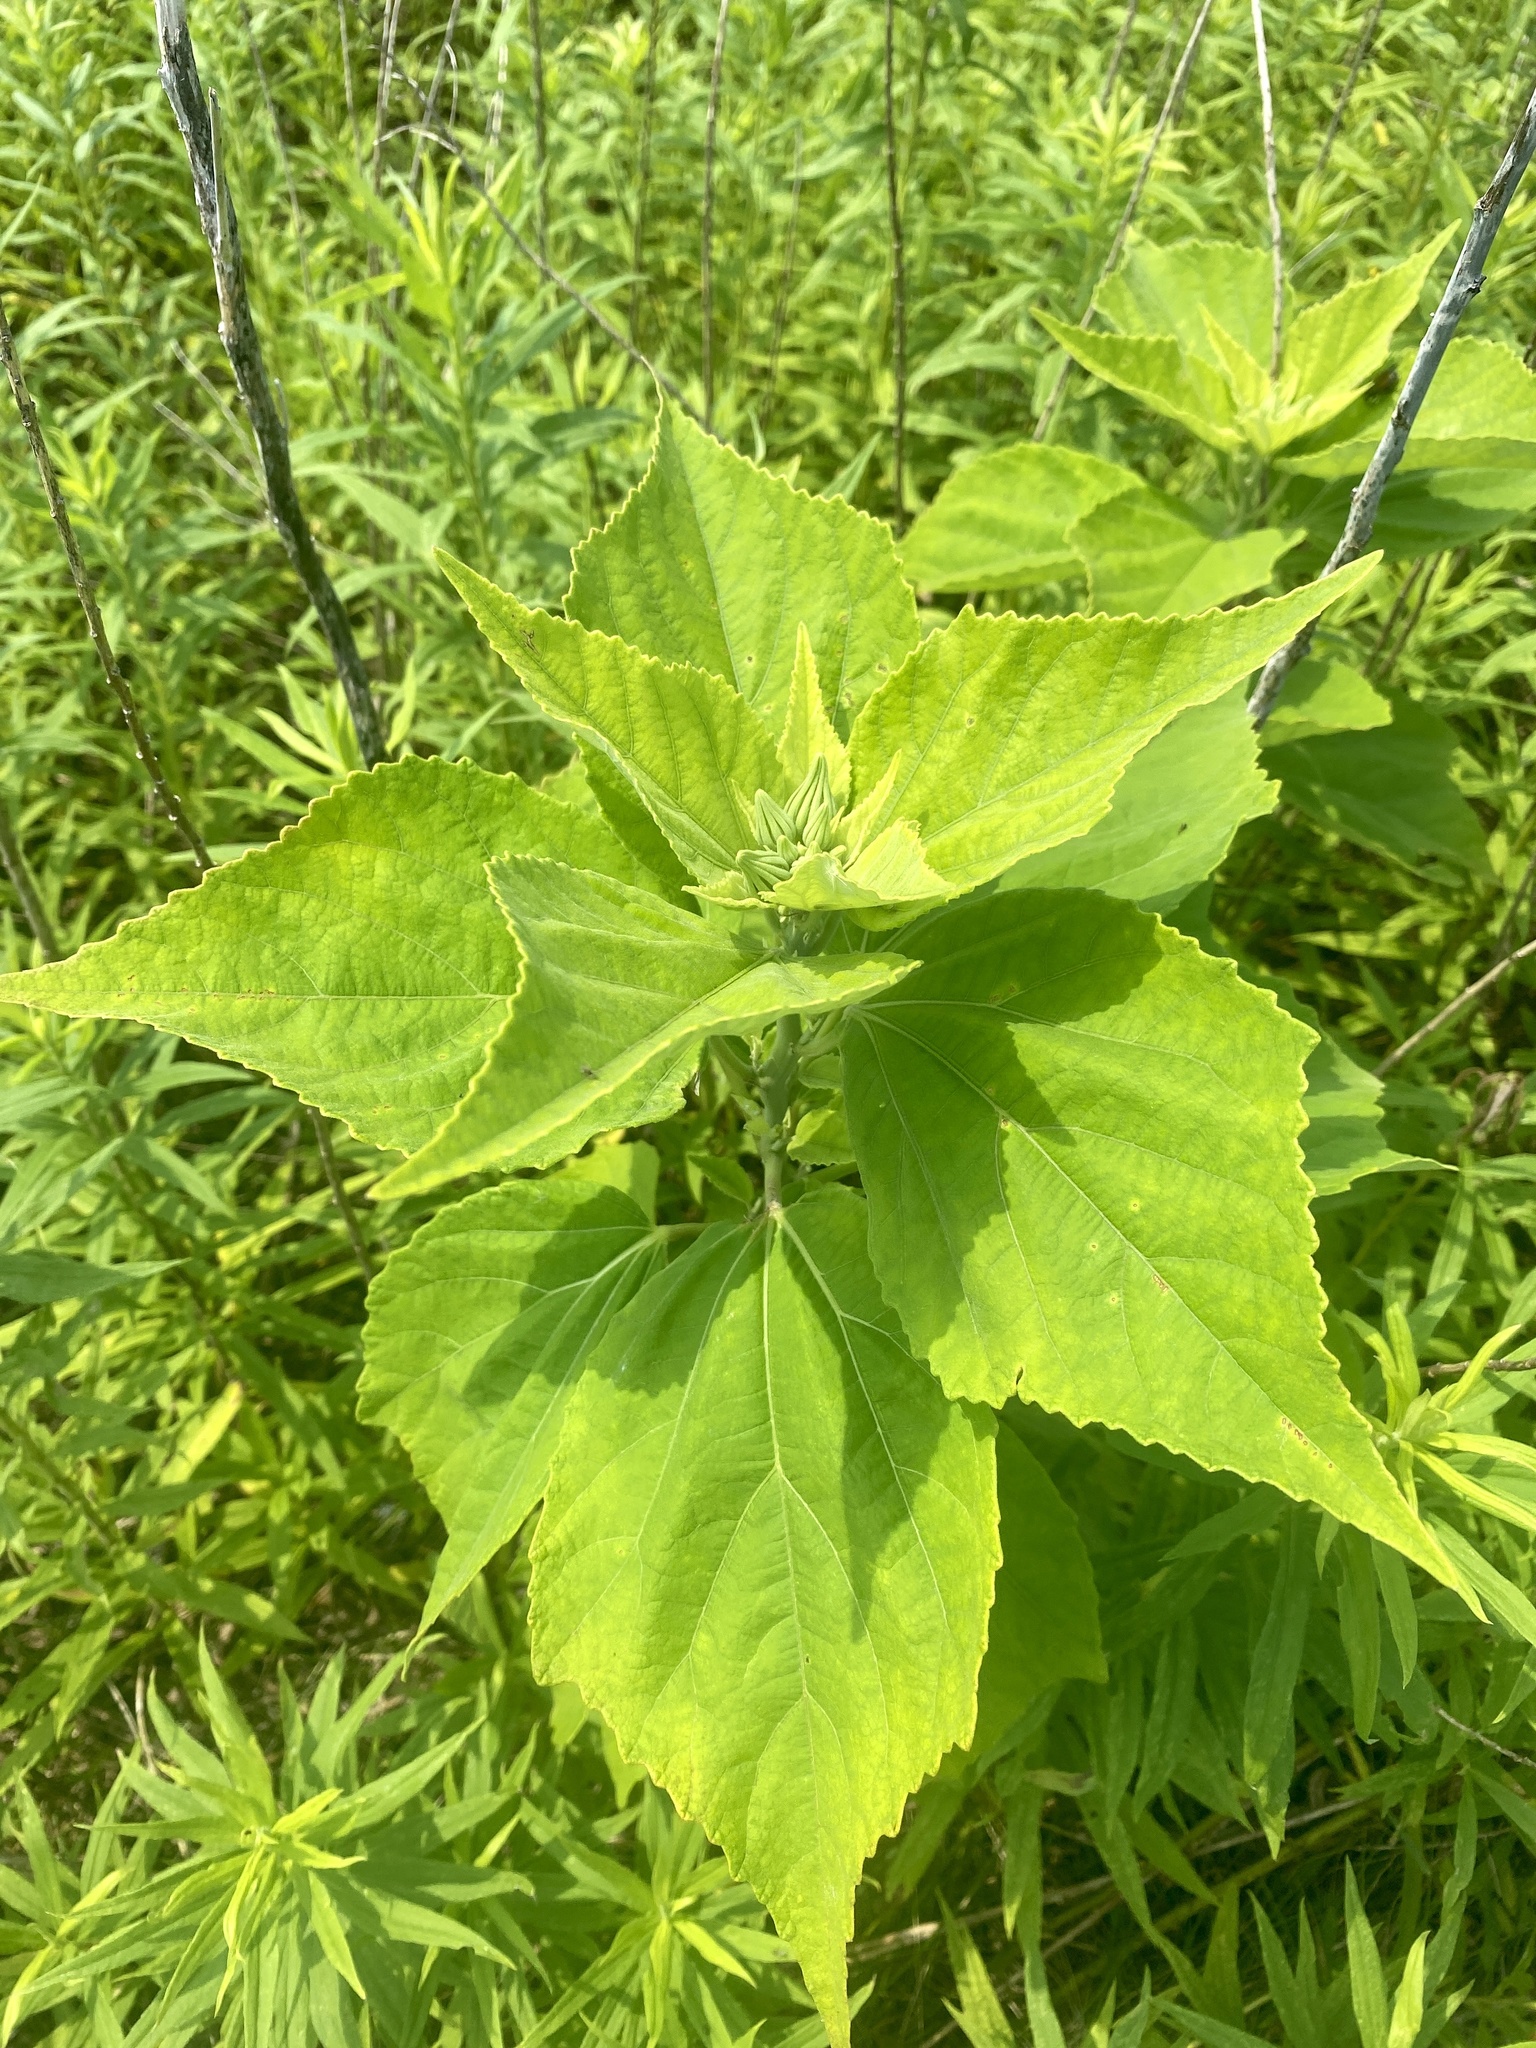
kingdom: Plantae
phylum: Tracheophyta
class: Magnoliopsida
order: Malvales
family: Malvaceae
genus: Hibiscus
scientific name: Hibiscus moscheutos
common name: Common rose-mallow
